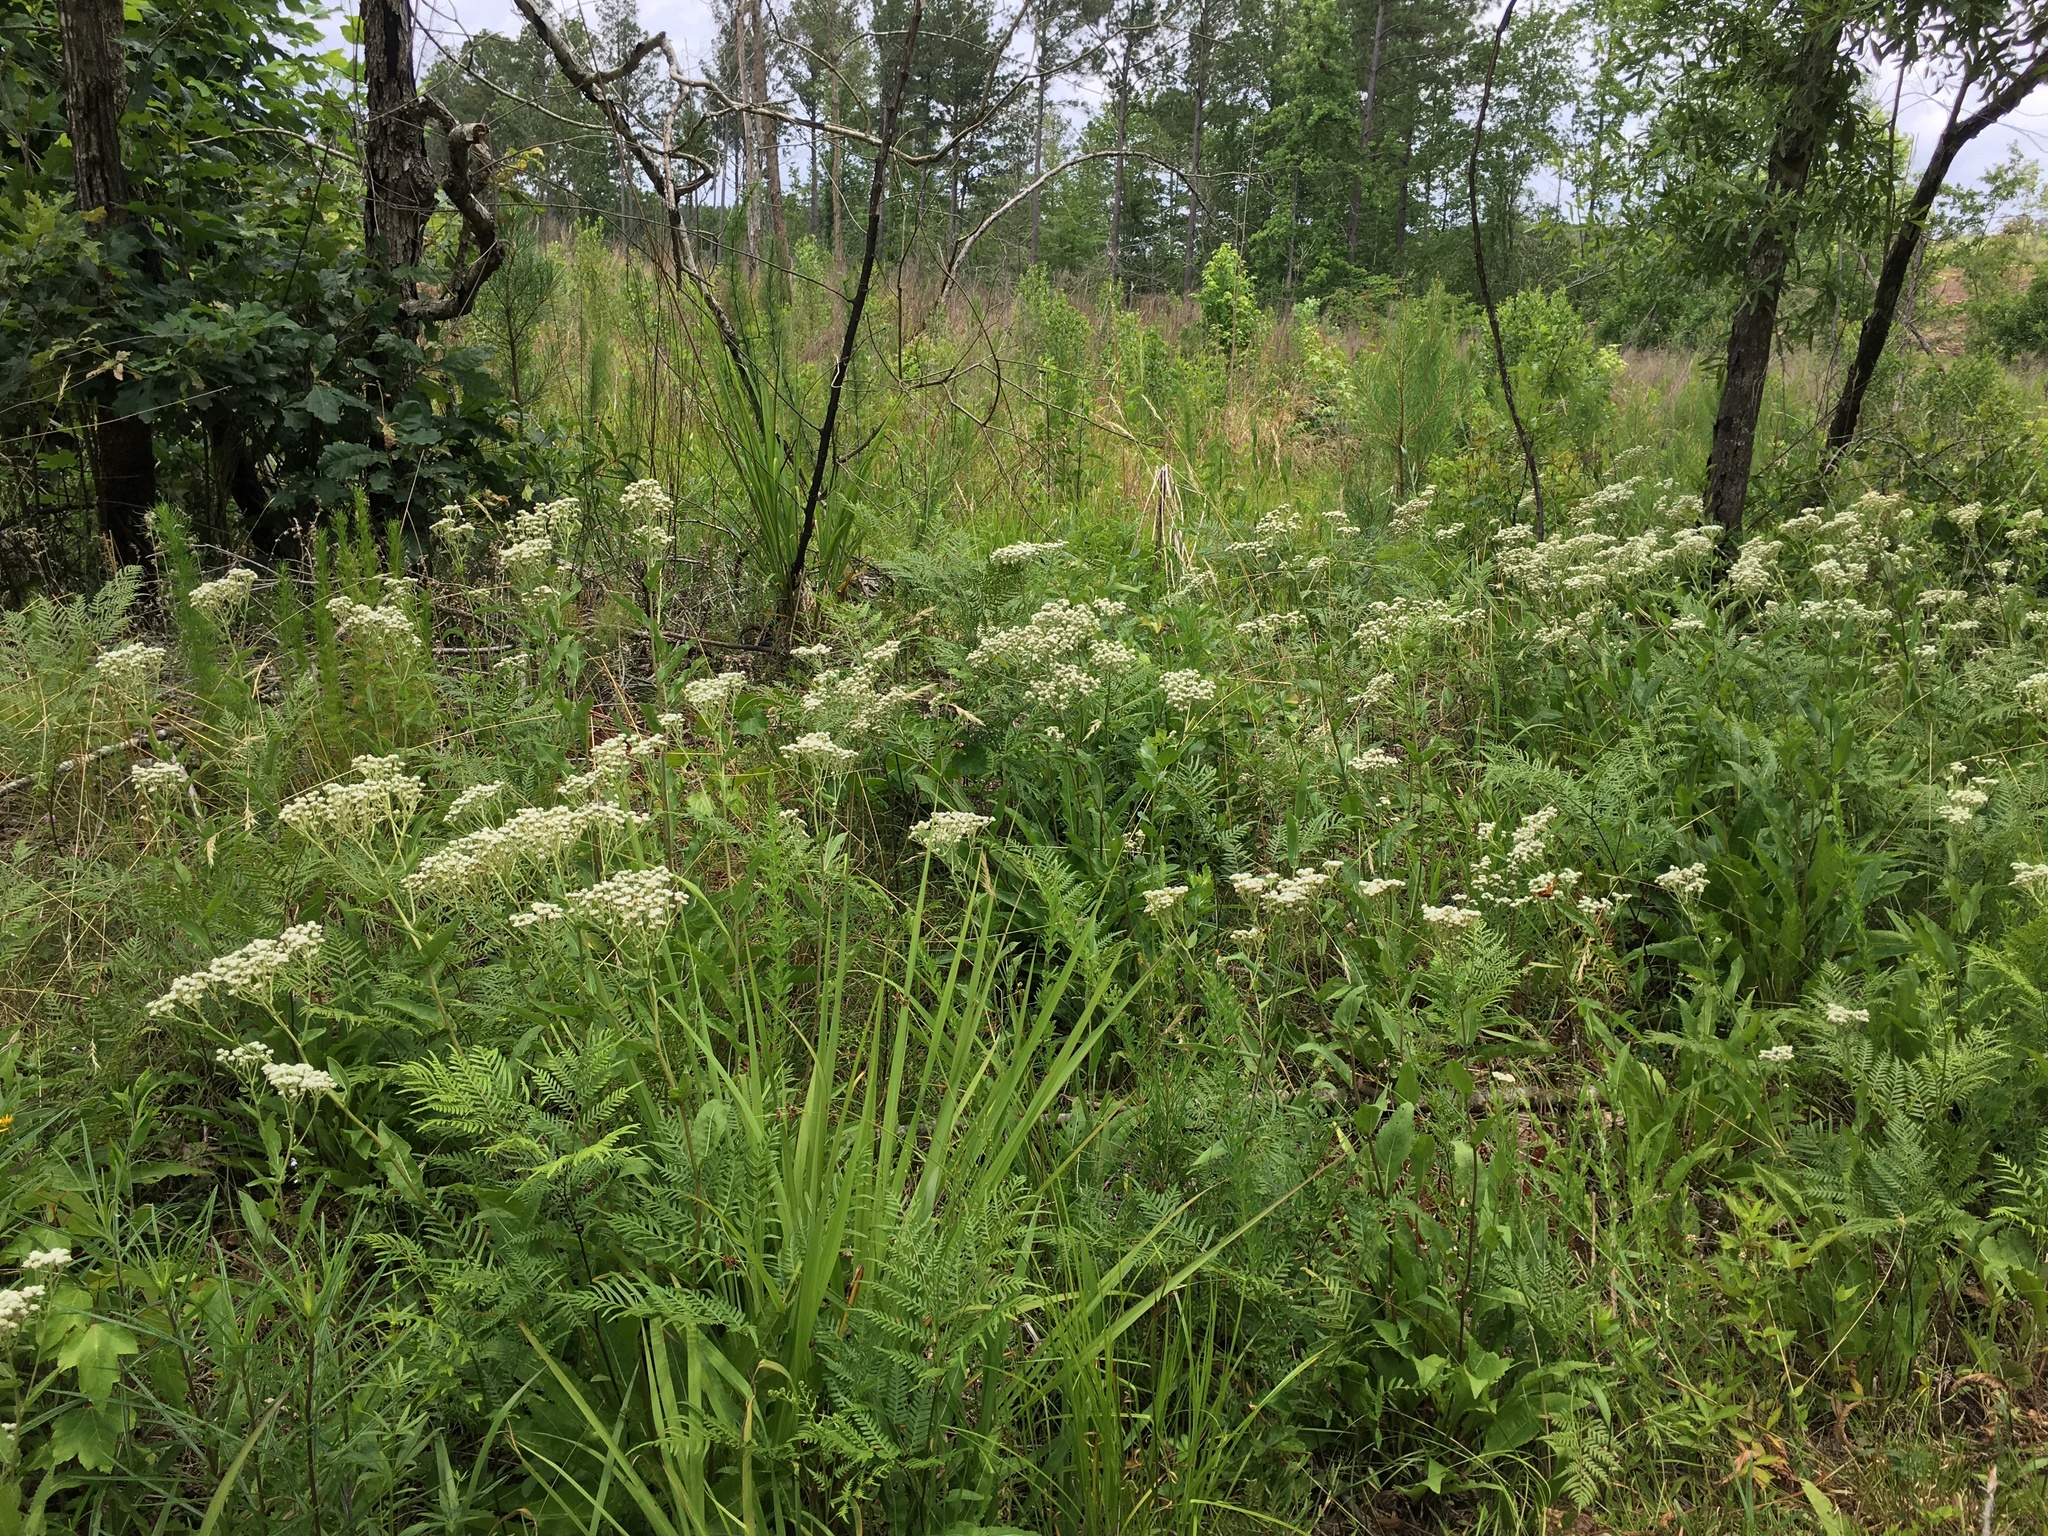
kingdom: Plantae
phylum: Tracheophyta
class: Magnoliopsida
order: Asterales
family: Asteraceae
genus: Parthenium
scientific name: Parthenium integrifolium
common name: American feverfew
